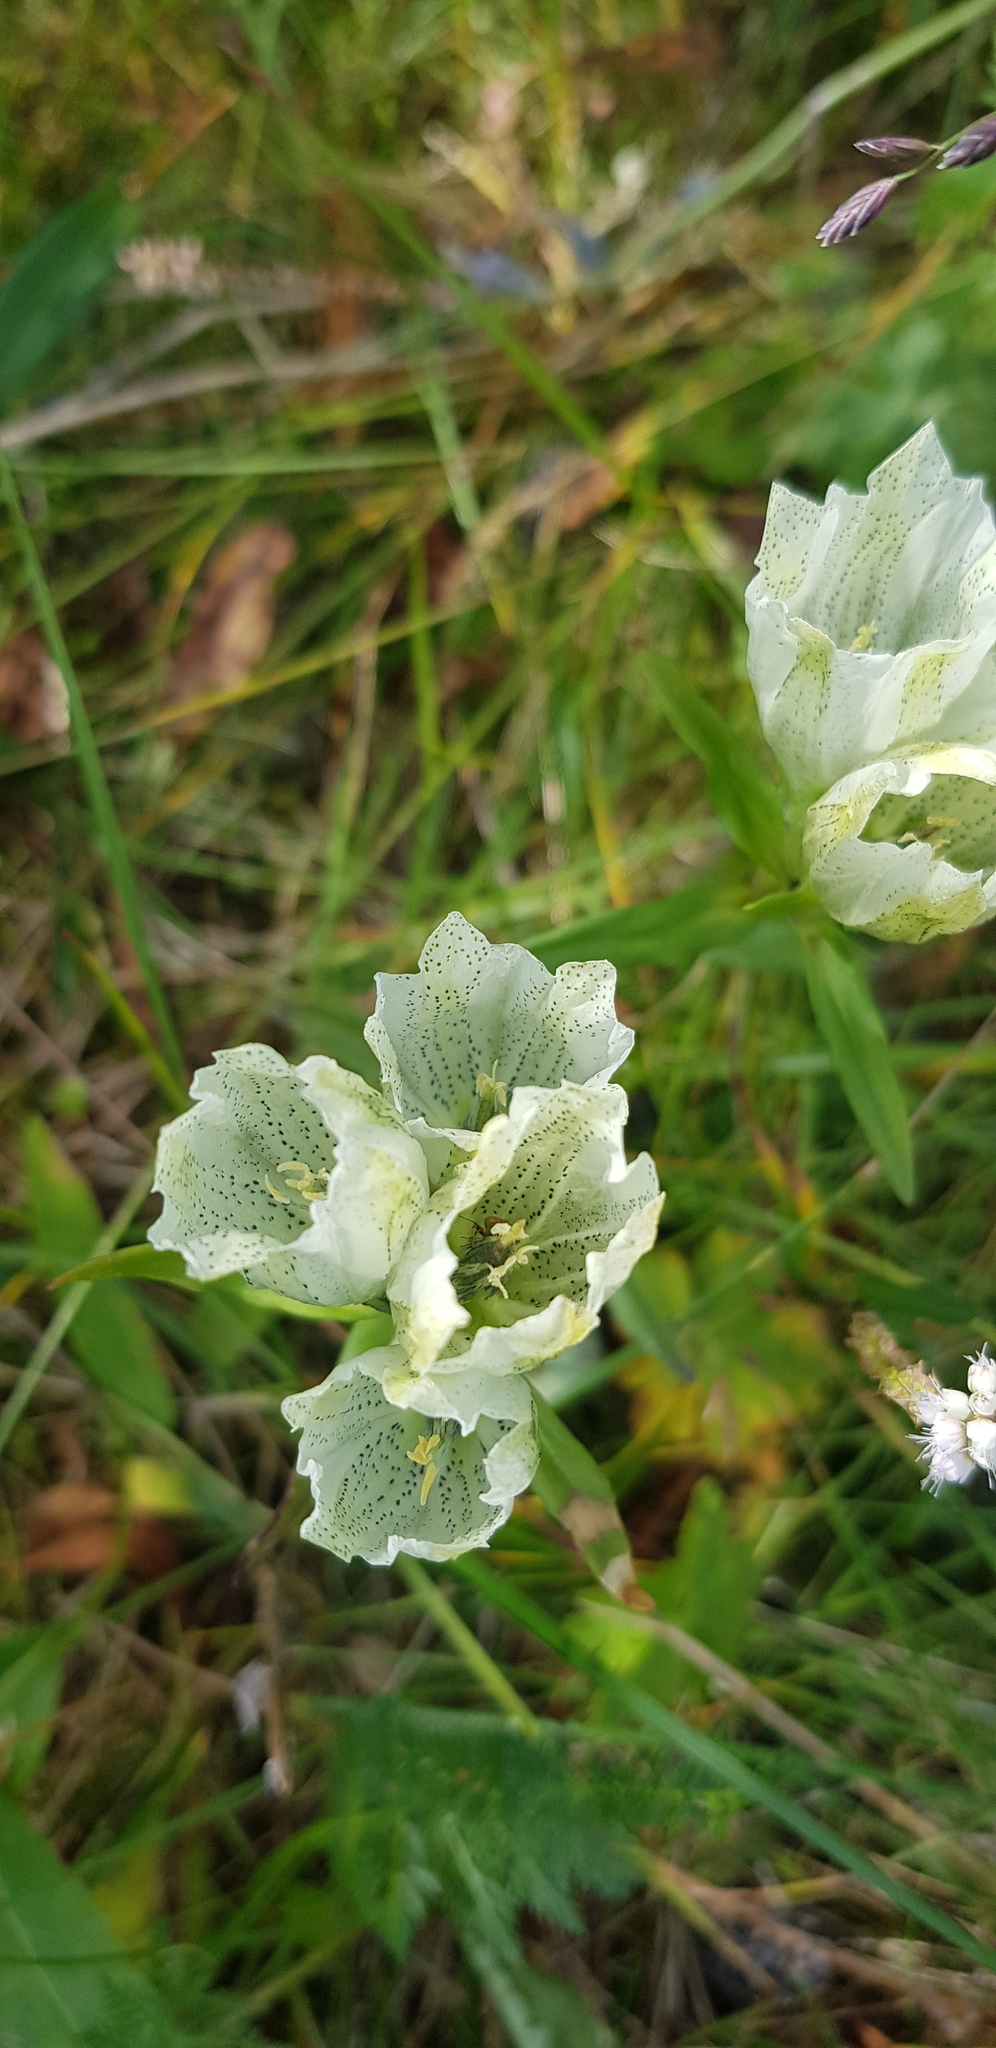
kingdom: Plantae
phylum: Tracheophyta
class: Magnoliopsida
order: Gentianales
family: Gentianaceae
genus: Gentiana
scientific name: Gentiana algida
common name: Arctic gentian
